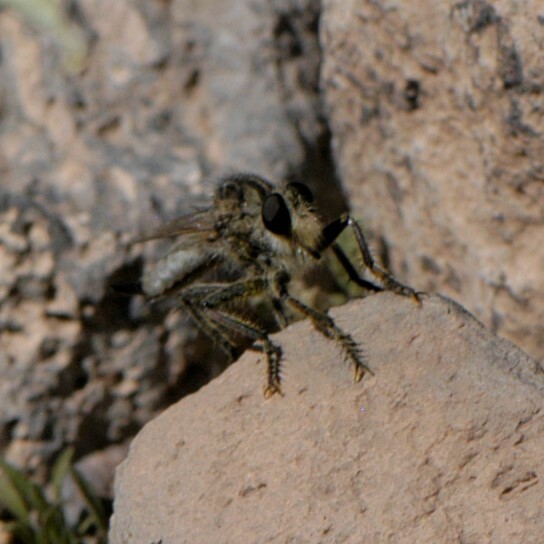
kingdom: Animalia
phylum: Arthropoda
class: Insecta
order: Diptera
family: Asilidae
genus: Efferia
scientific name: Efferia
